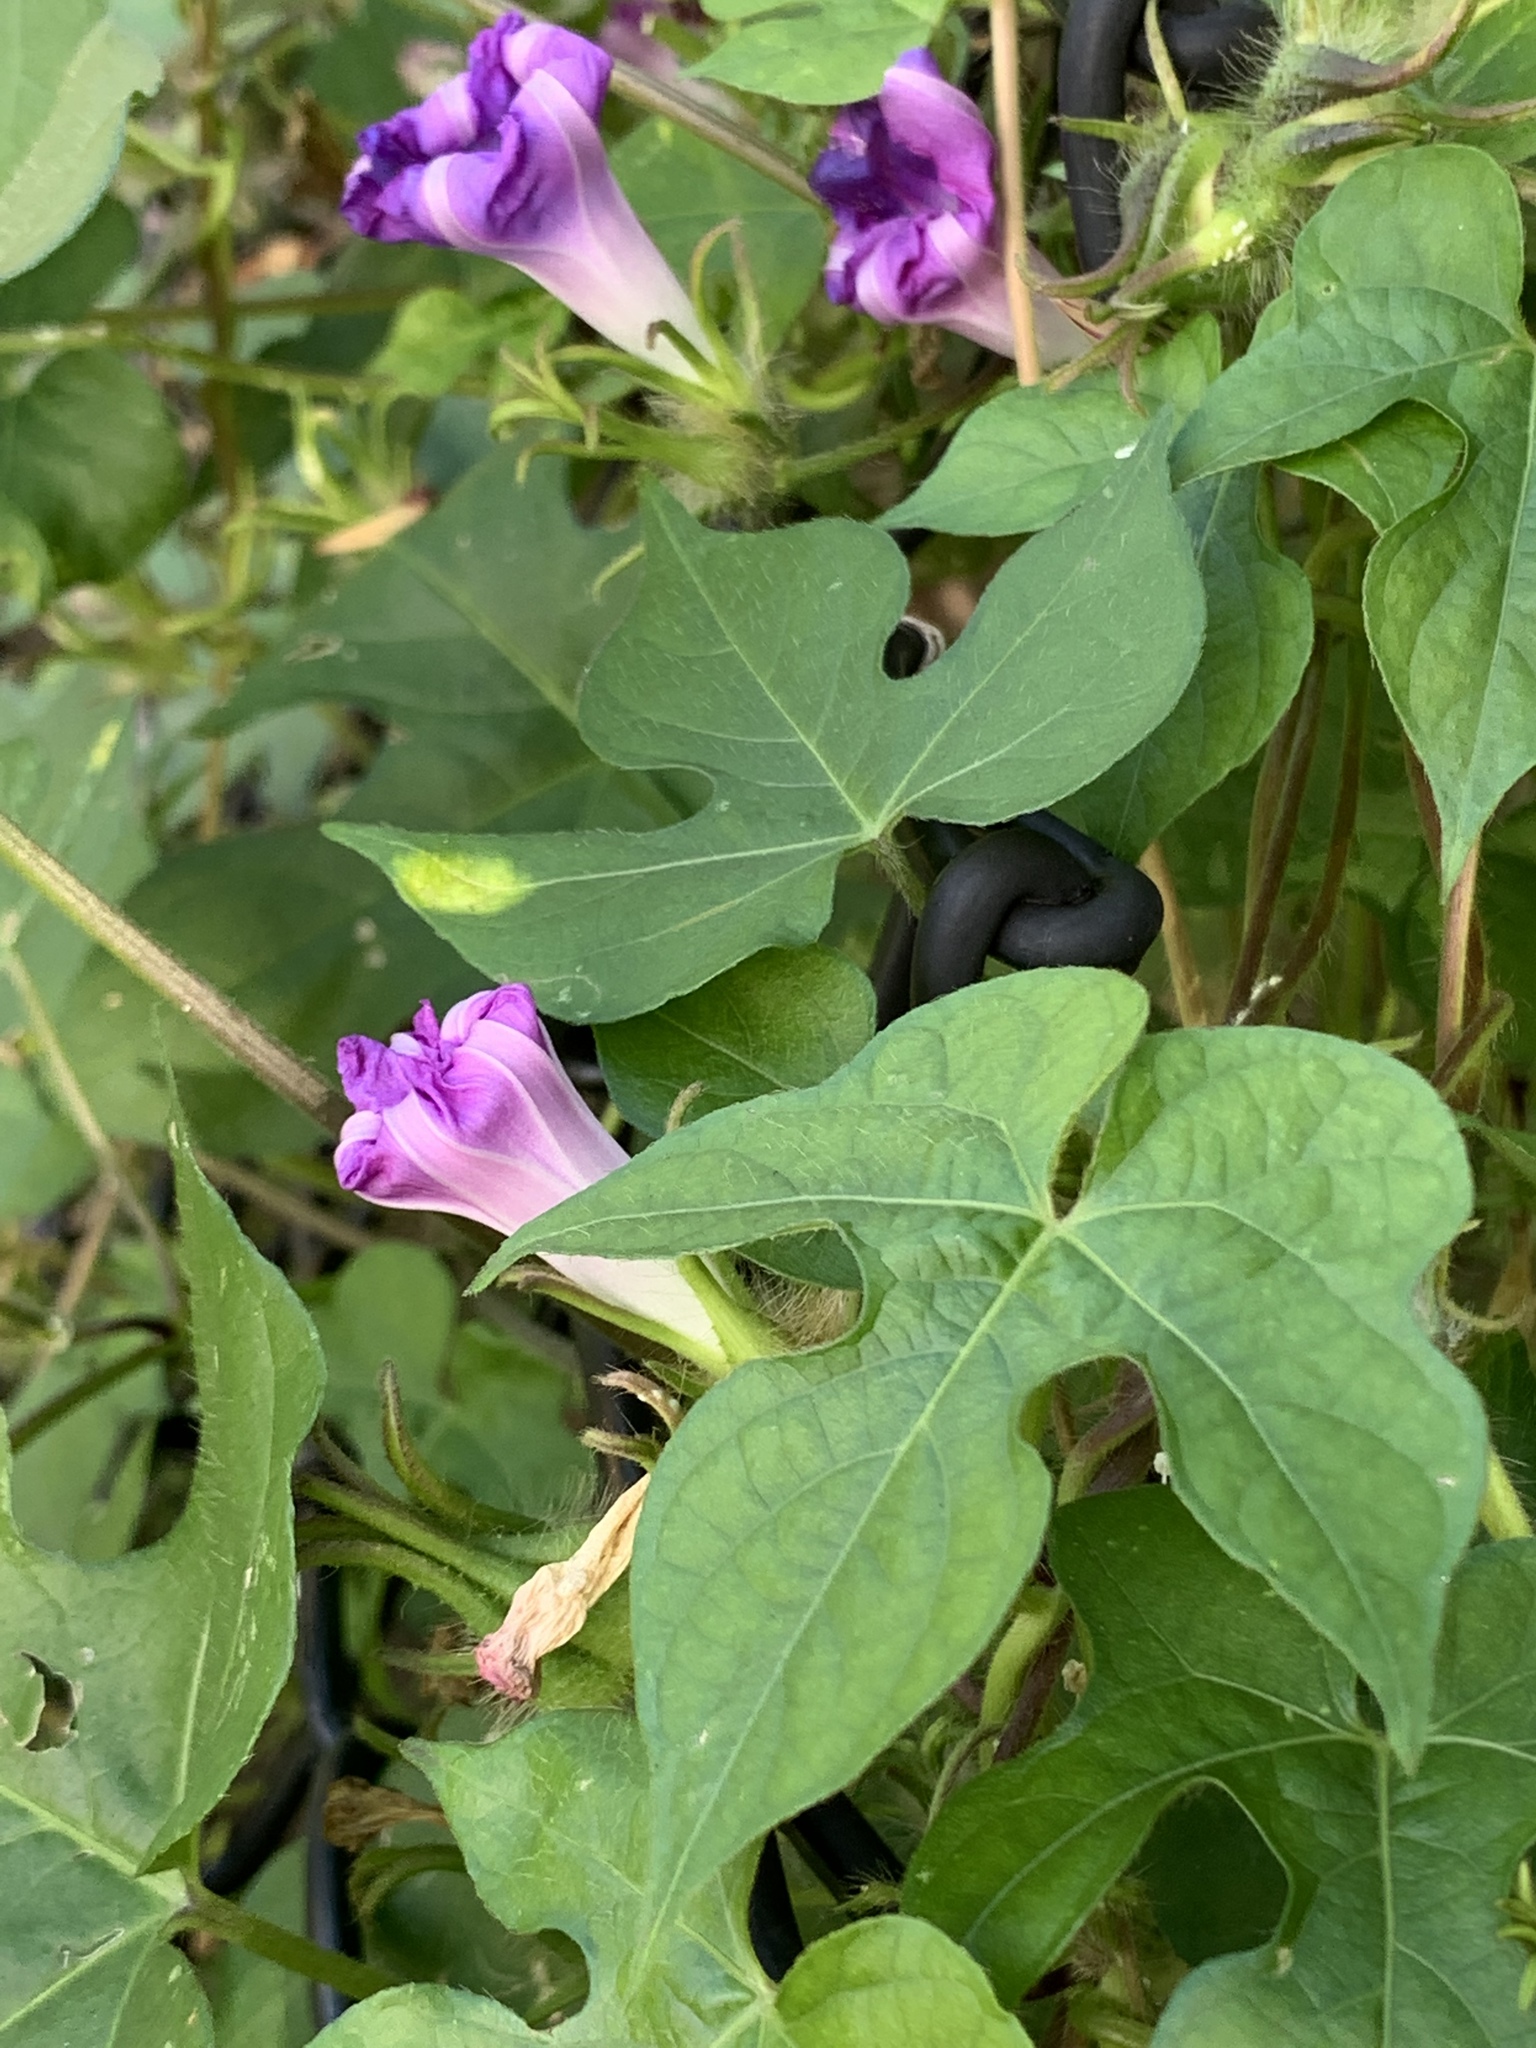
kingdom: Plantae
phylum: Tracheophyta
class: Magnoliopsida
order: Solanales
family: Convolvulaceae
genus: Ipomoea
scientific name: Ipomoea hederacea
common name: Ivy-leaved morning-glory
